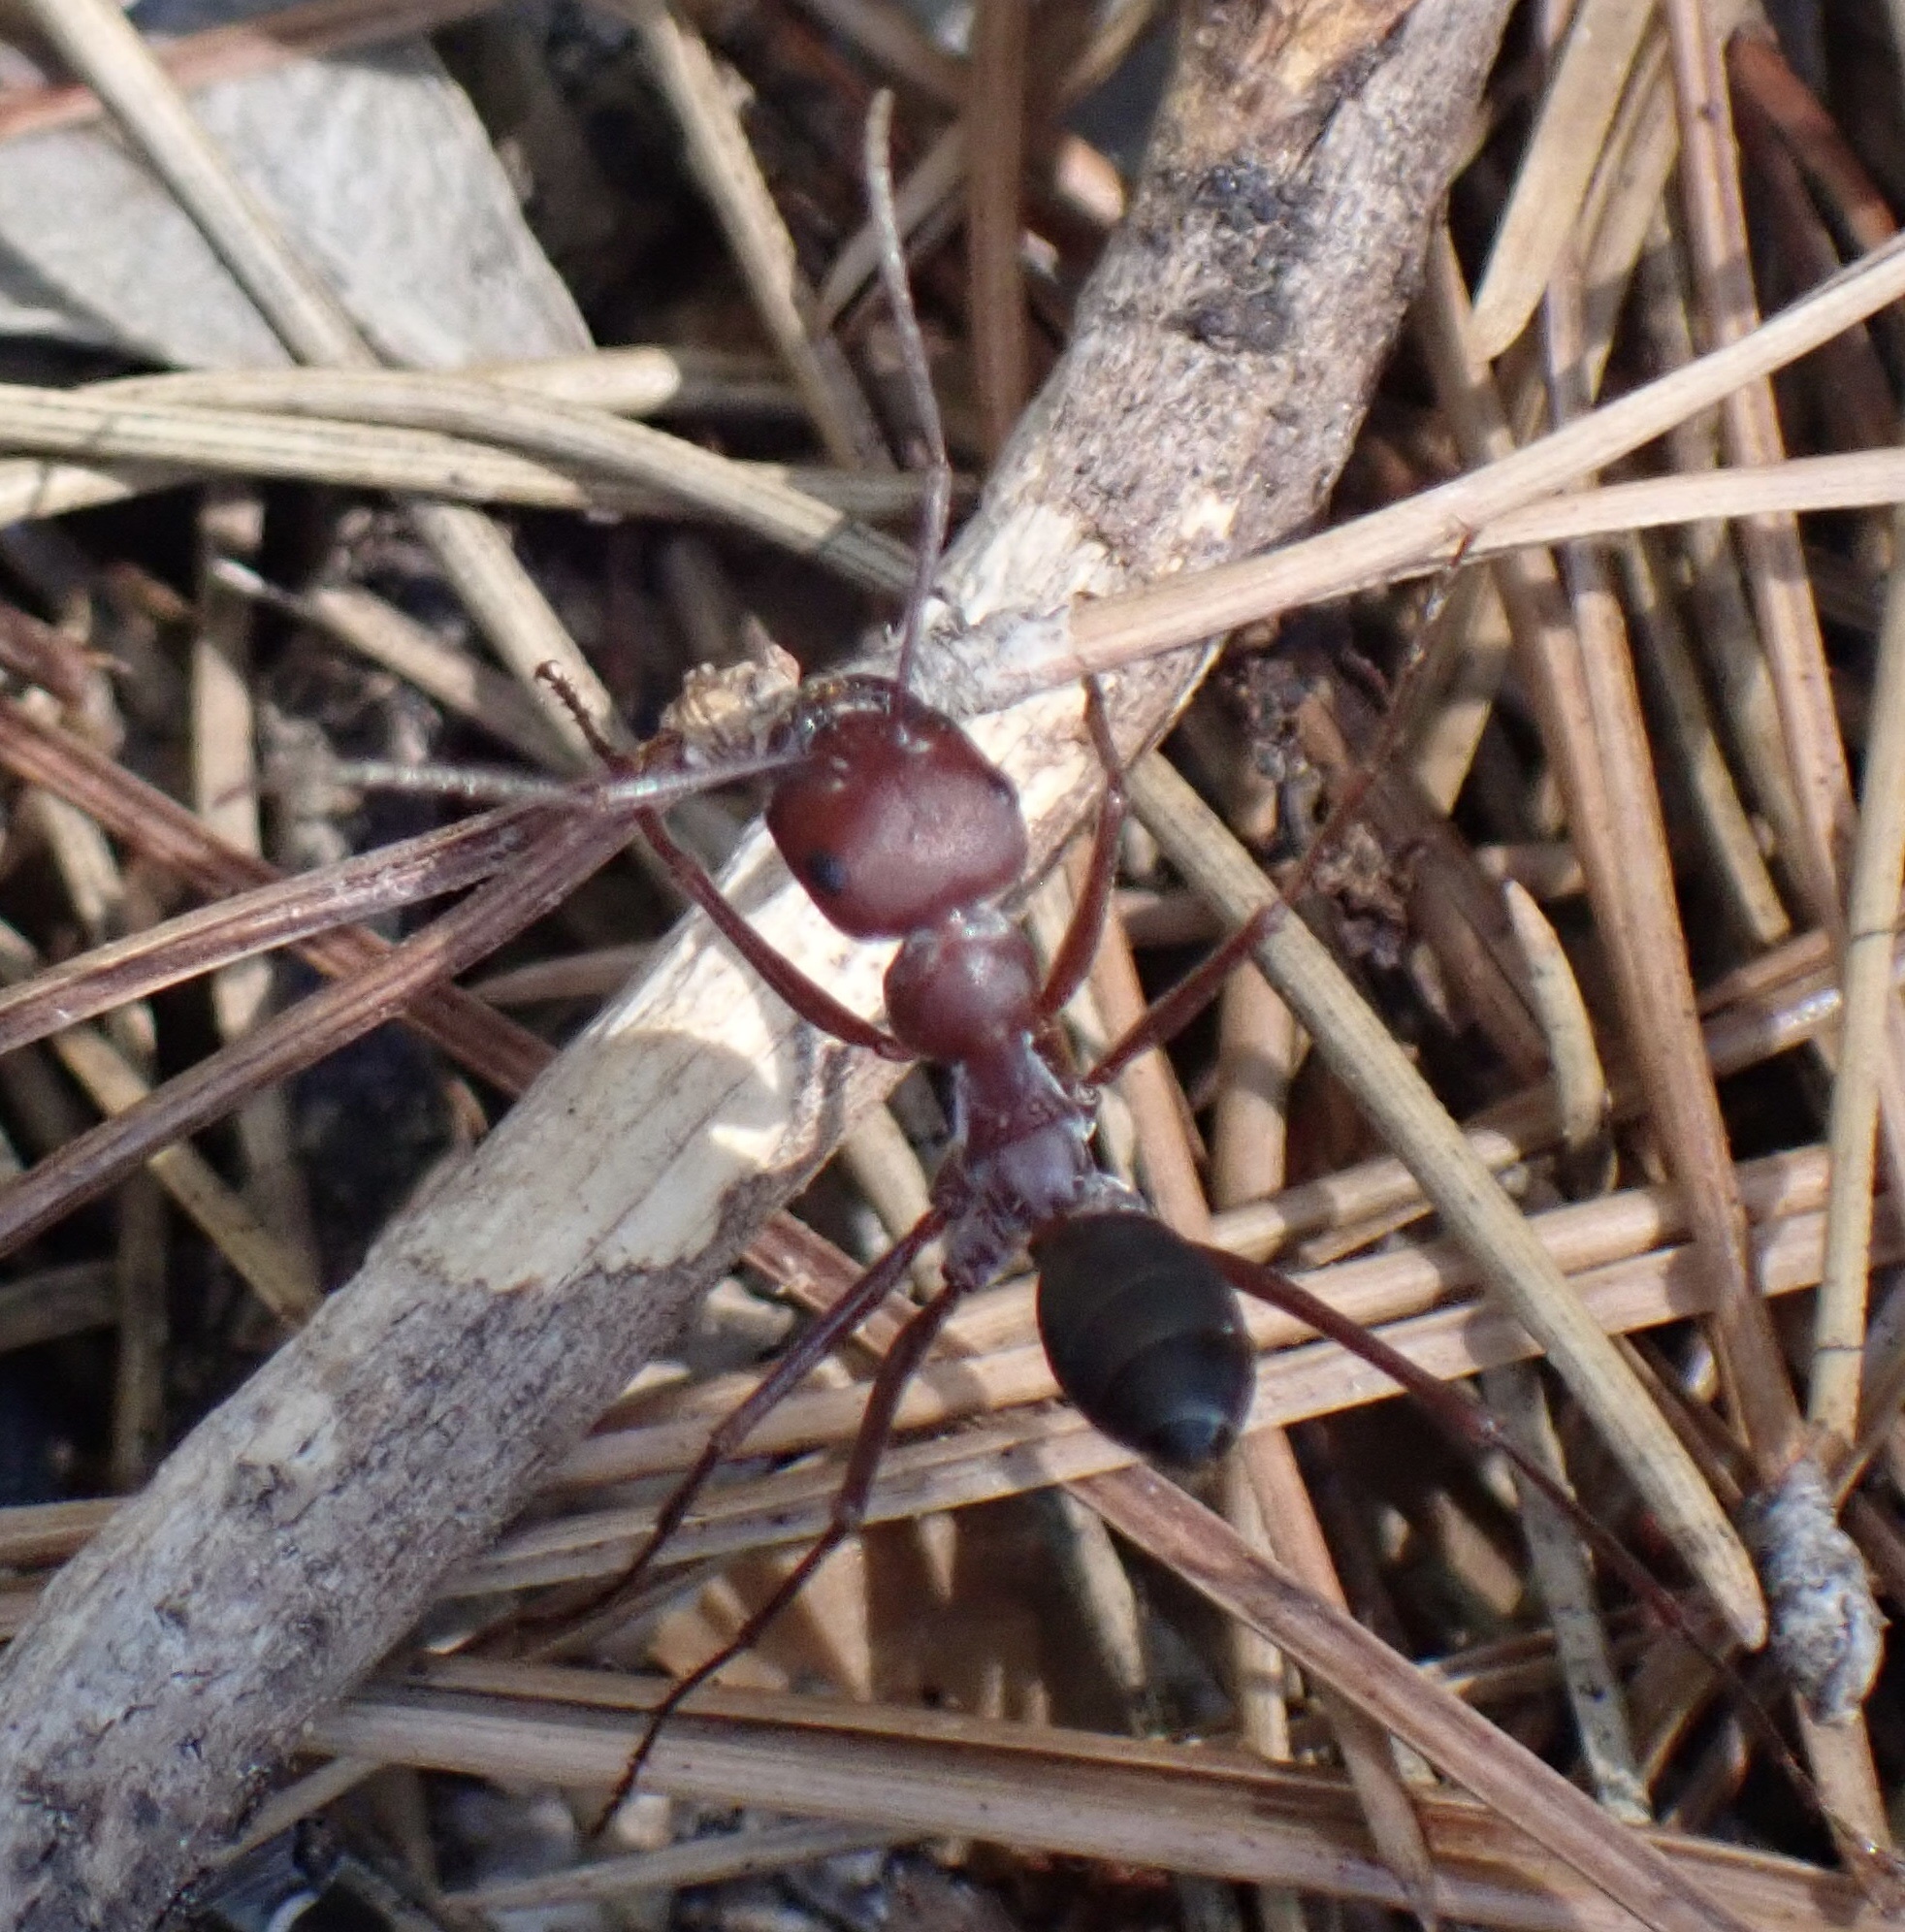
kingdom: Animalia
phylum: Arthropoda
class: Insecta
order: Hymenoptera
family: Formicidae
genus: Cataglyphis
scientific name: Cataglyphis nodus
